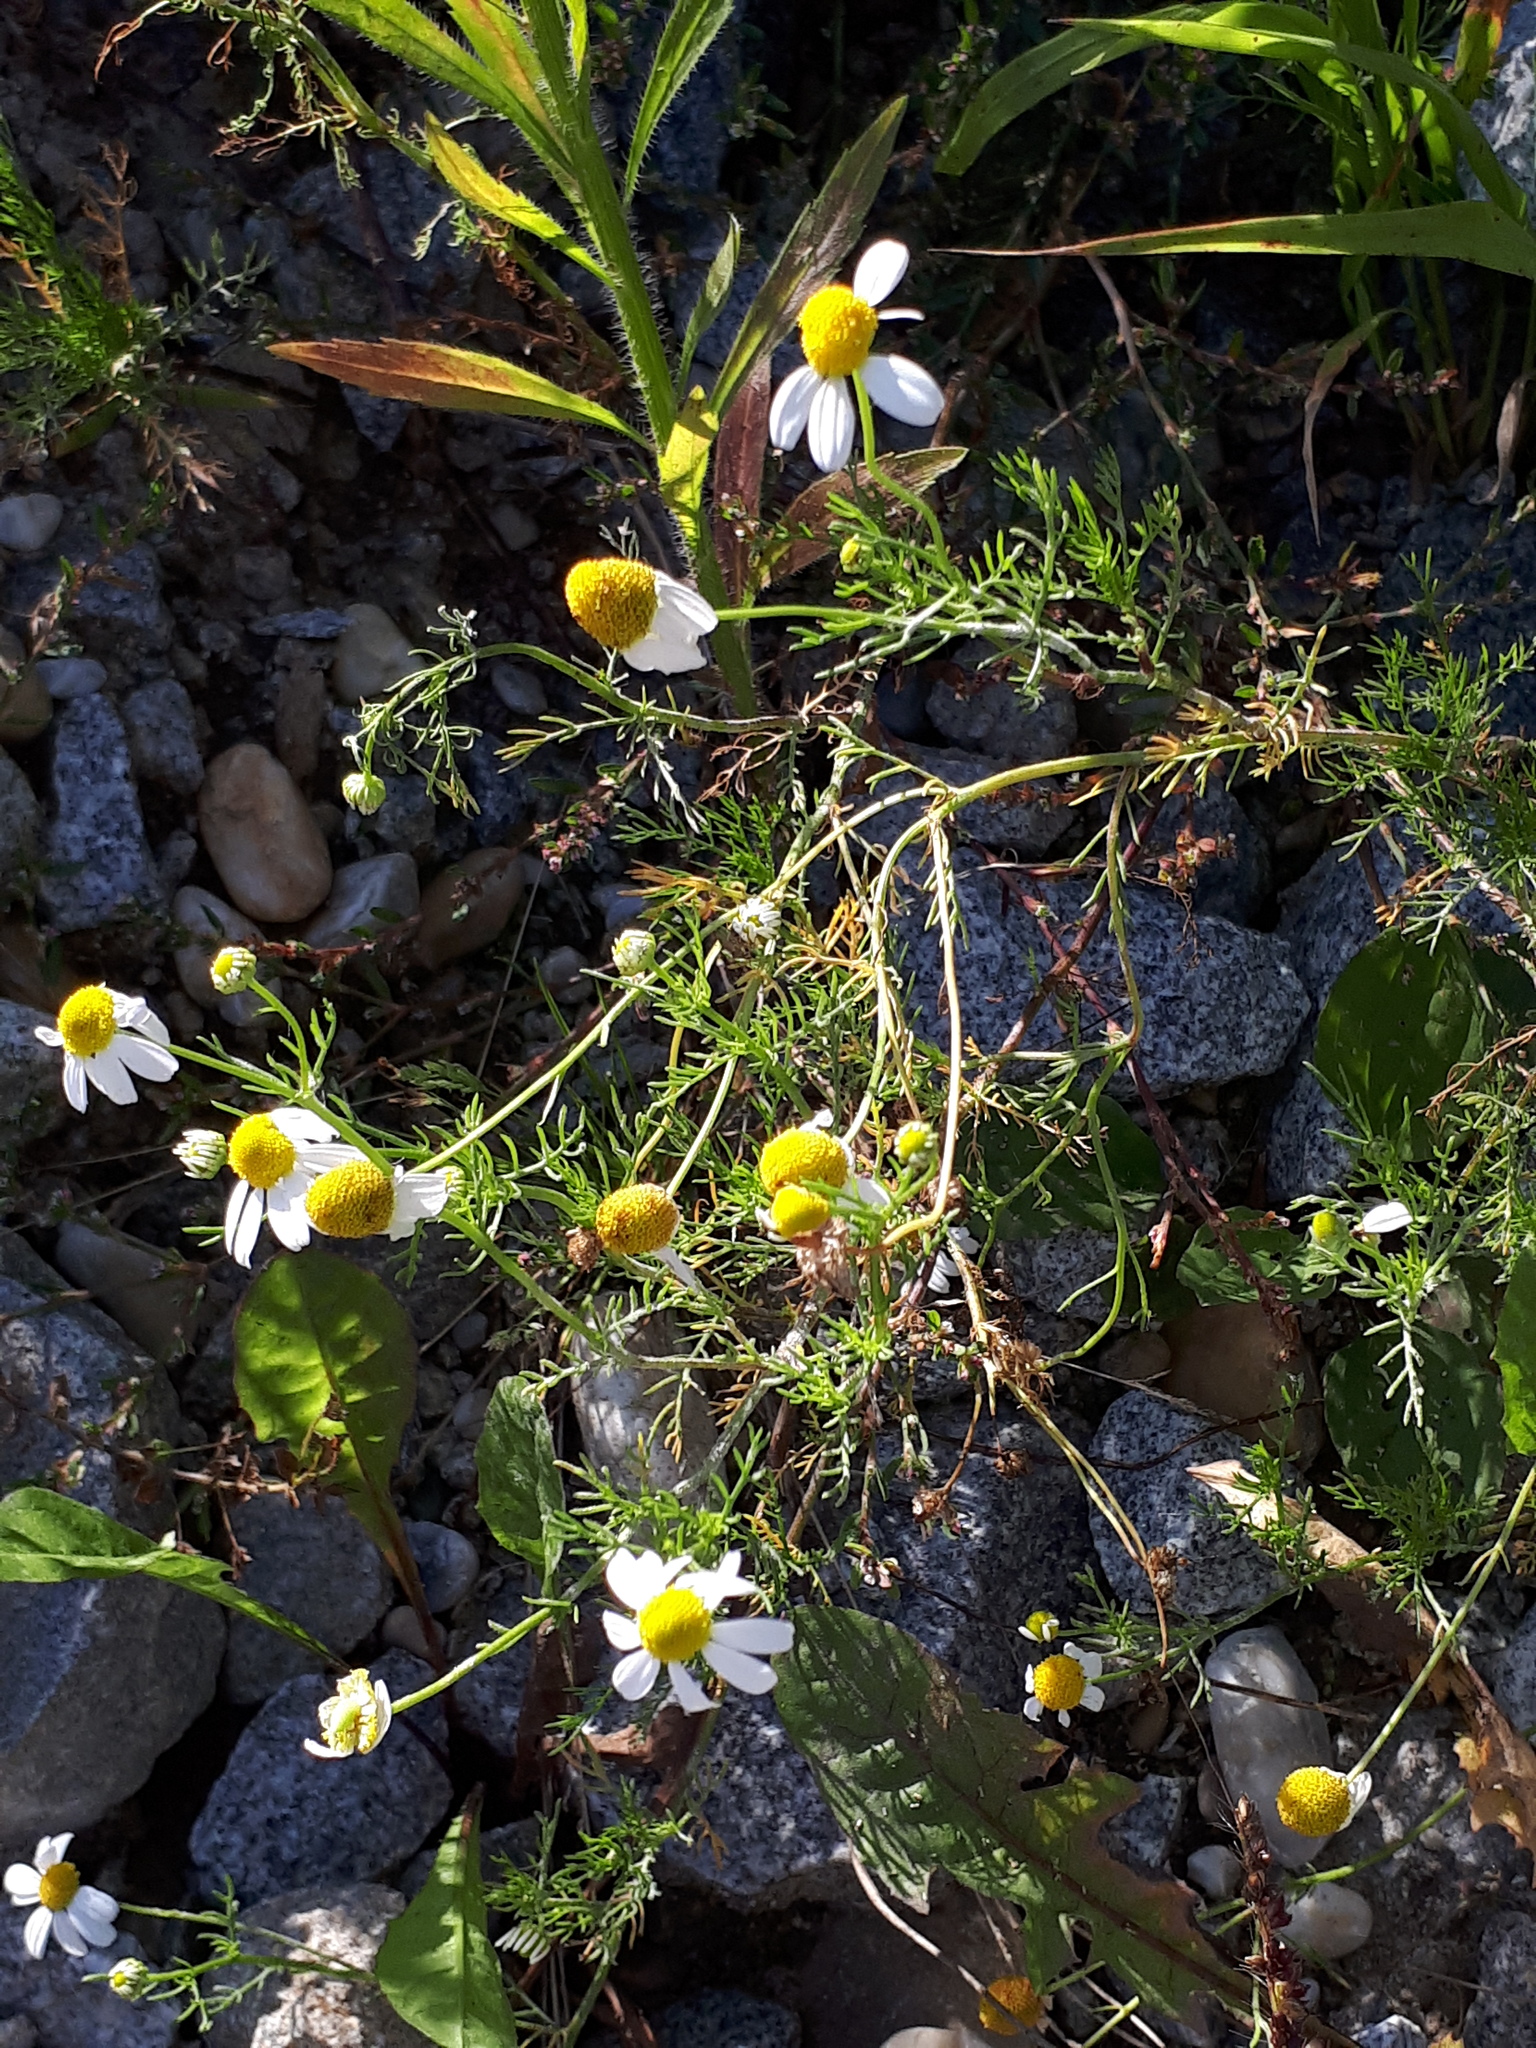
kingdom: Plantae
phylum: Tracheophyta
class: Magnoliopsida
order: Asterales
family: Asteraceae
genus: Matricaria
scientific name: Matricaria chamomilla
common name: Scented mayweed
